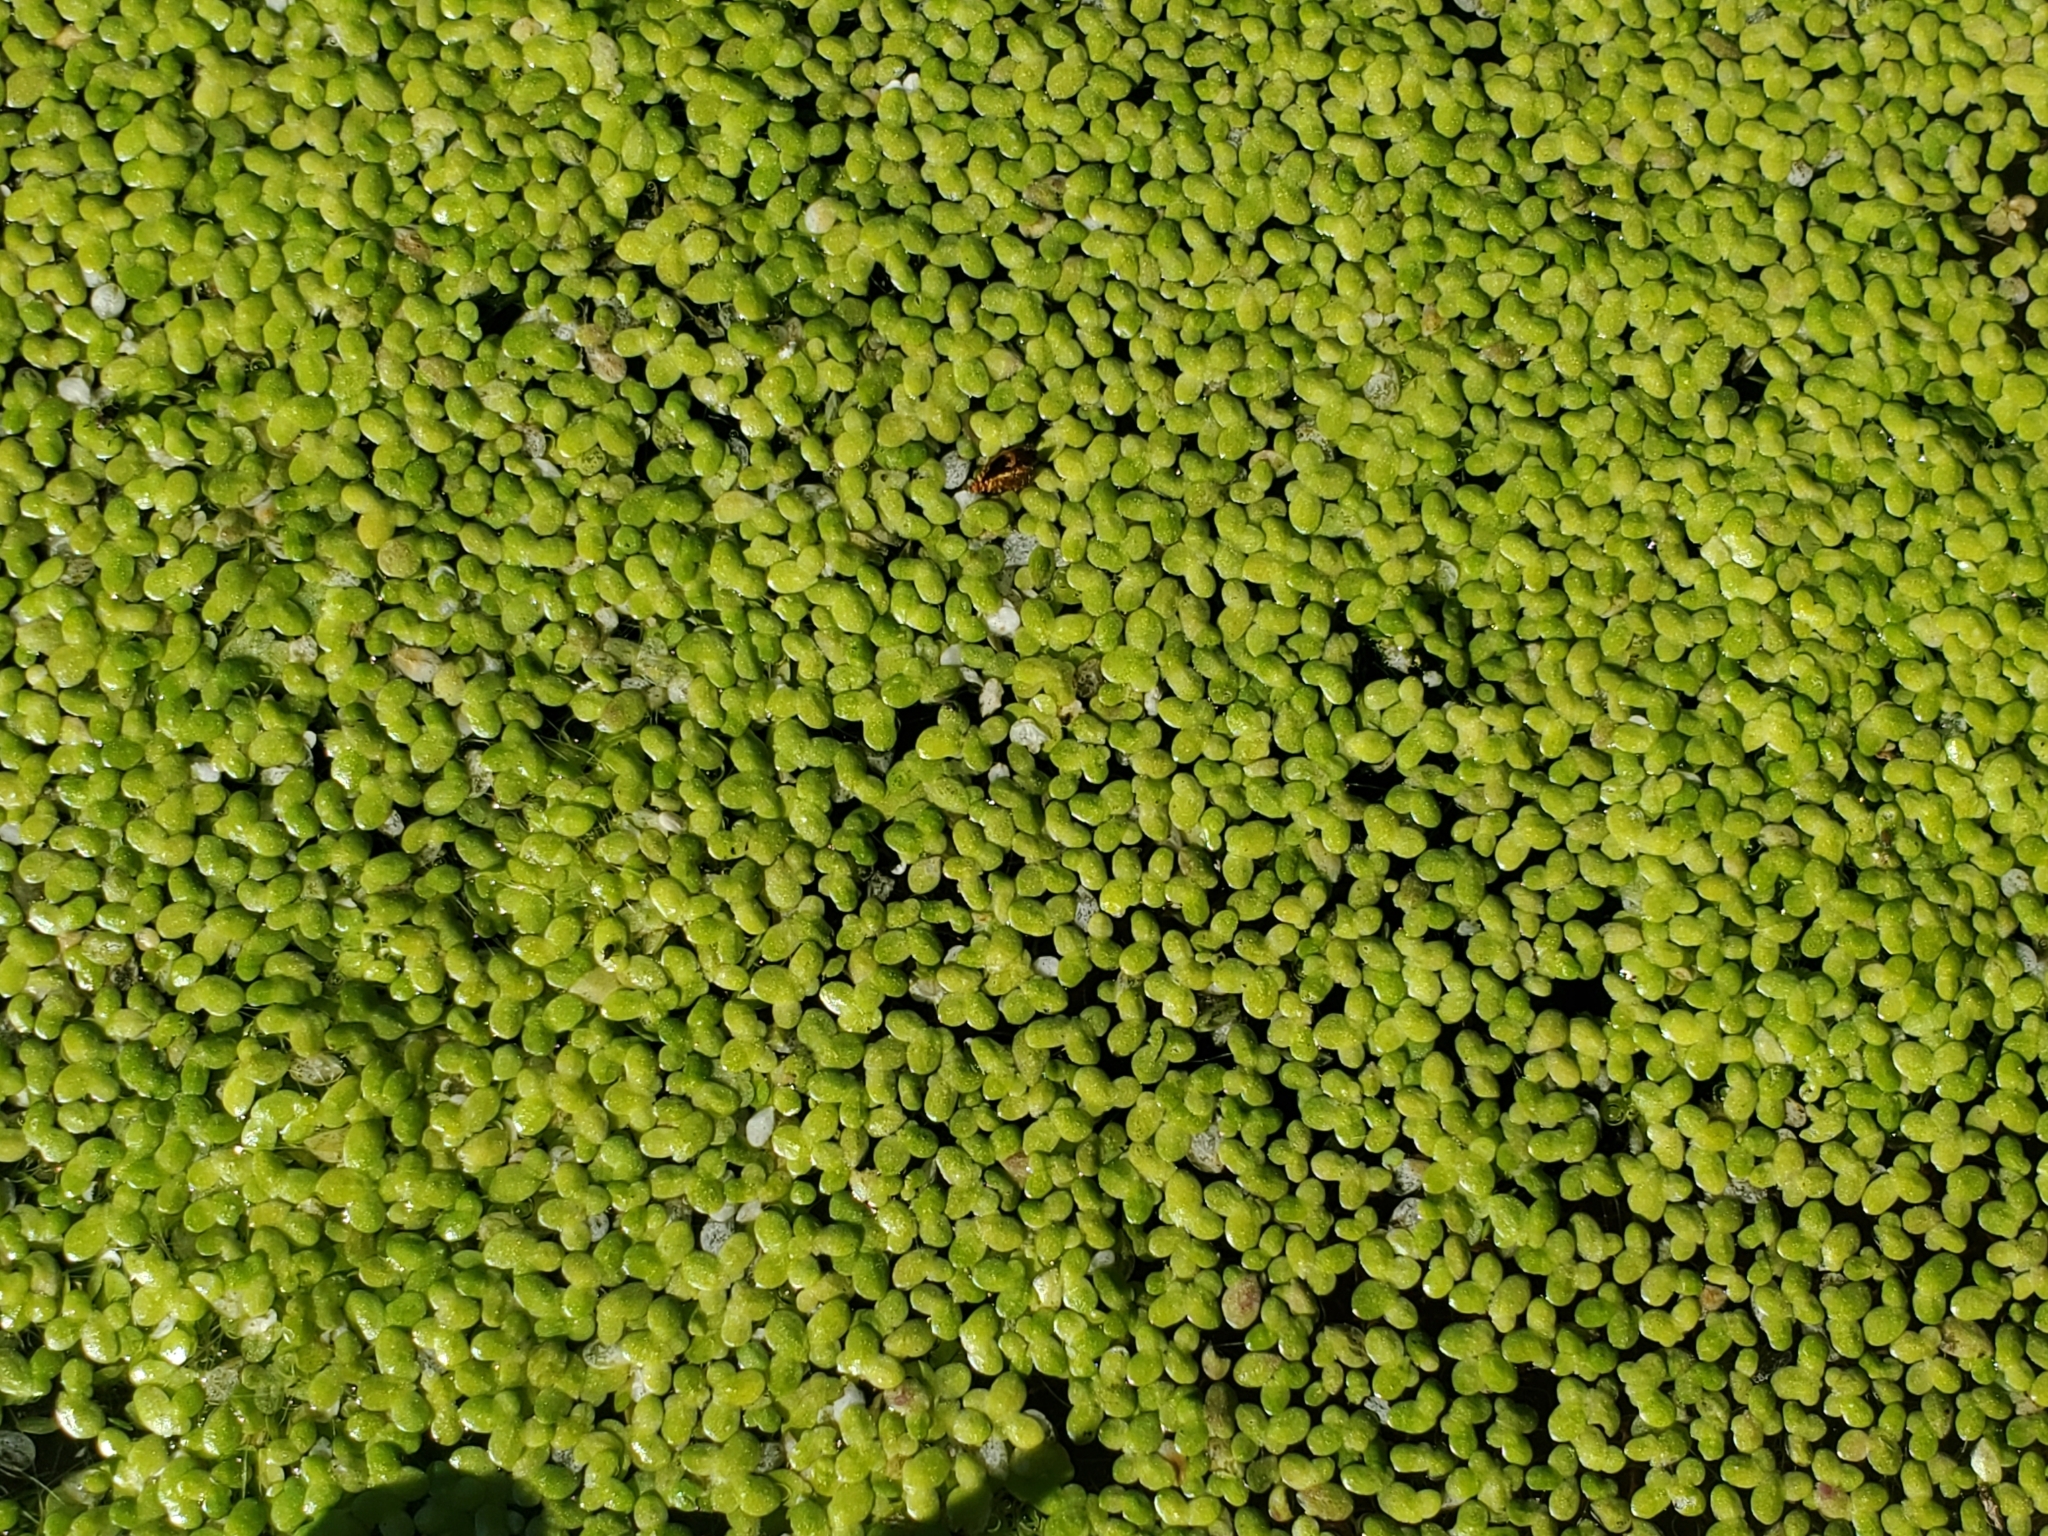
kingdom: Plantae
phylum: Tracheophyta
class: Liliopsida
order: Alismatales
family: Araceae
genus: Lemna
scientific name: Lemna minor
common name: Common duckweed
